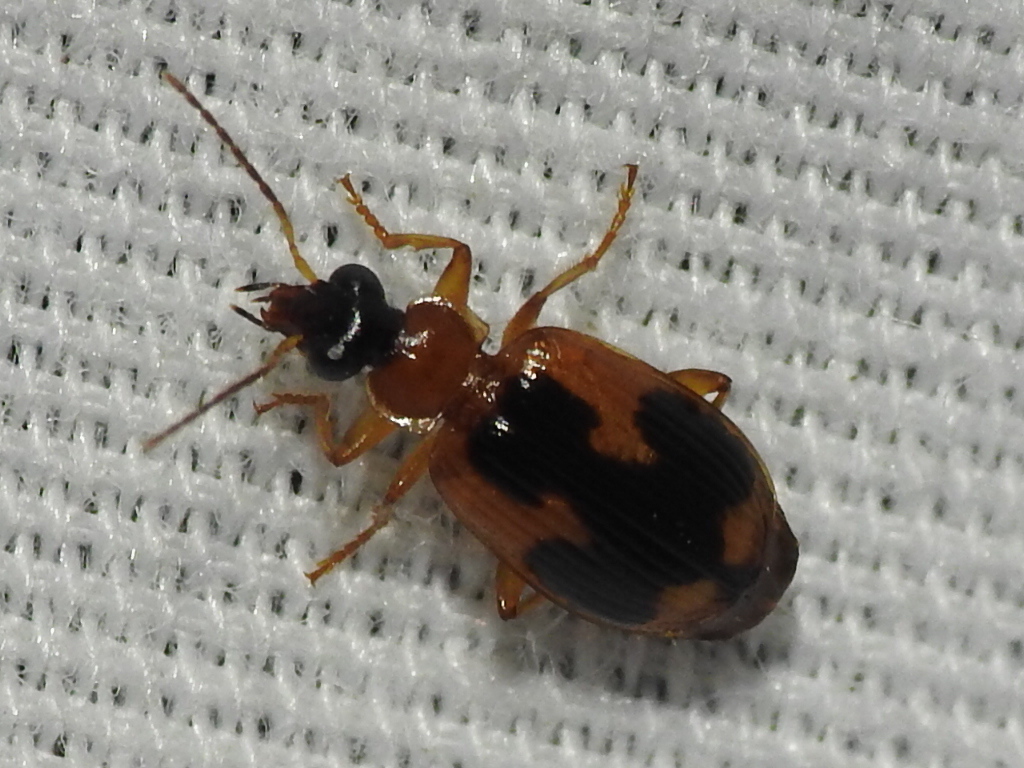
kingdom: Animalia
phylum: Arthropoda
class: Insecta
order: Coleoptera
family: Carabidae
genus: Lebia
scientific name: Lebia analis
